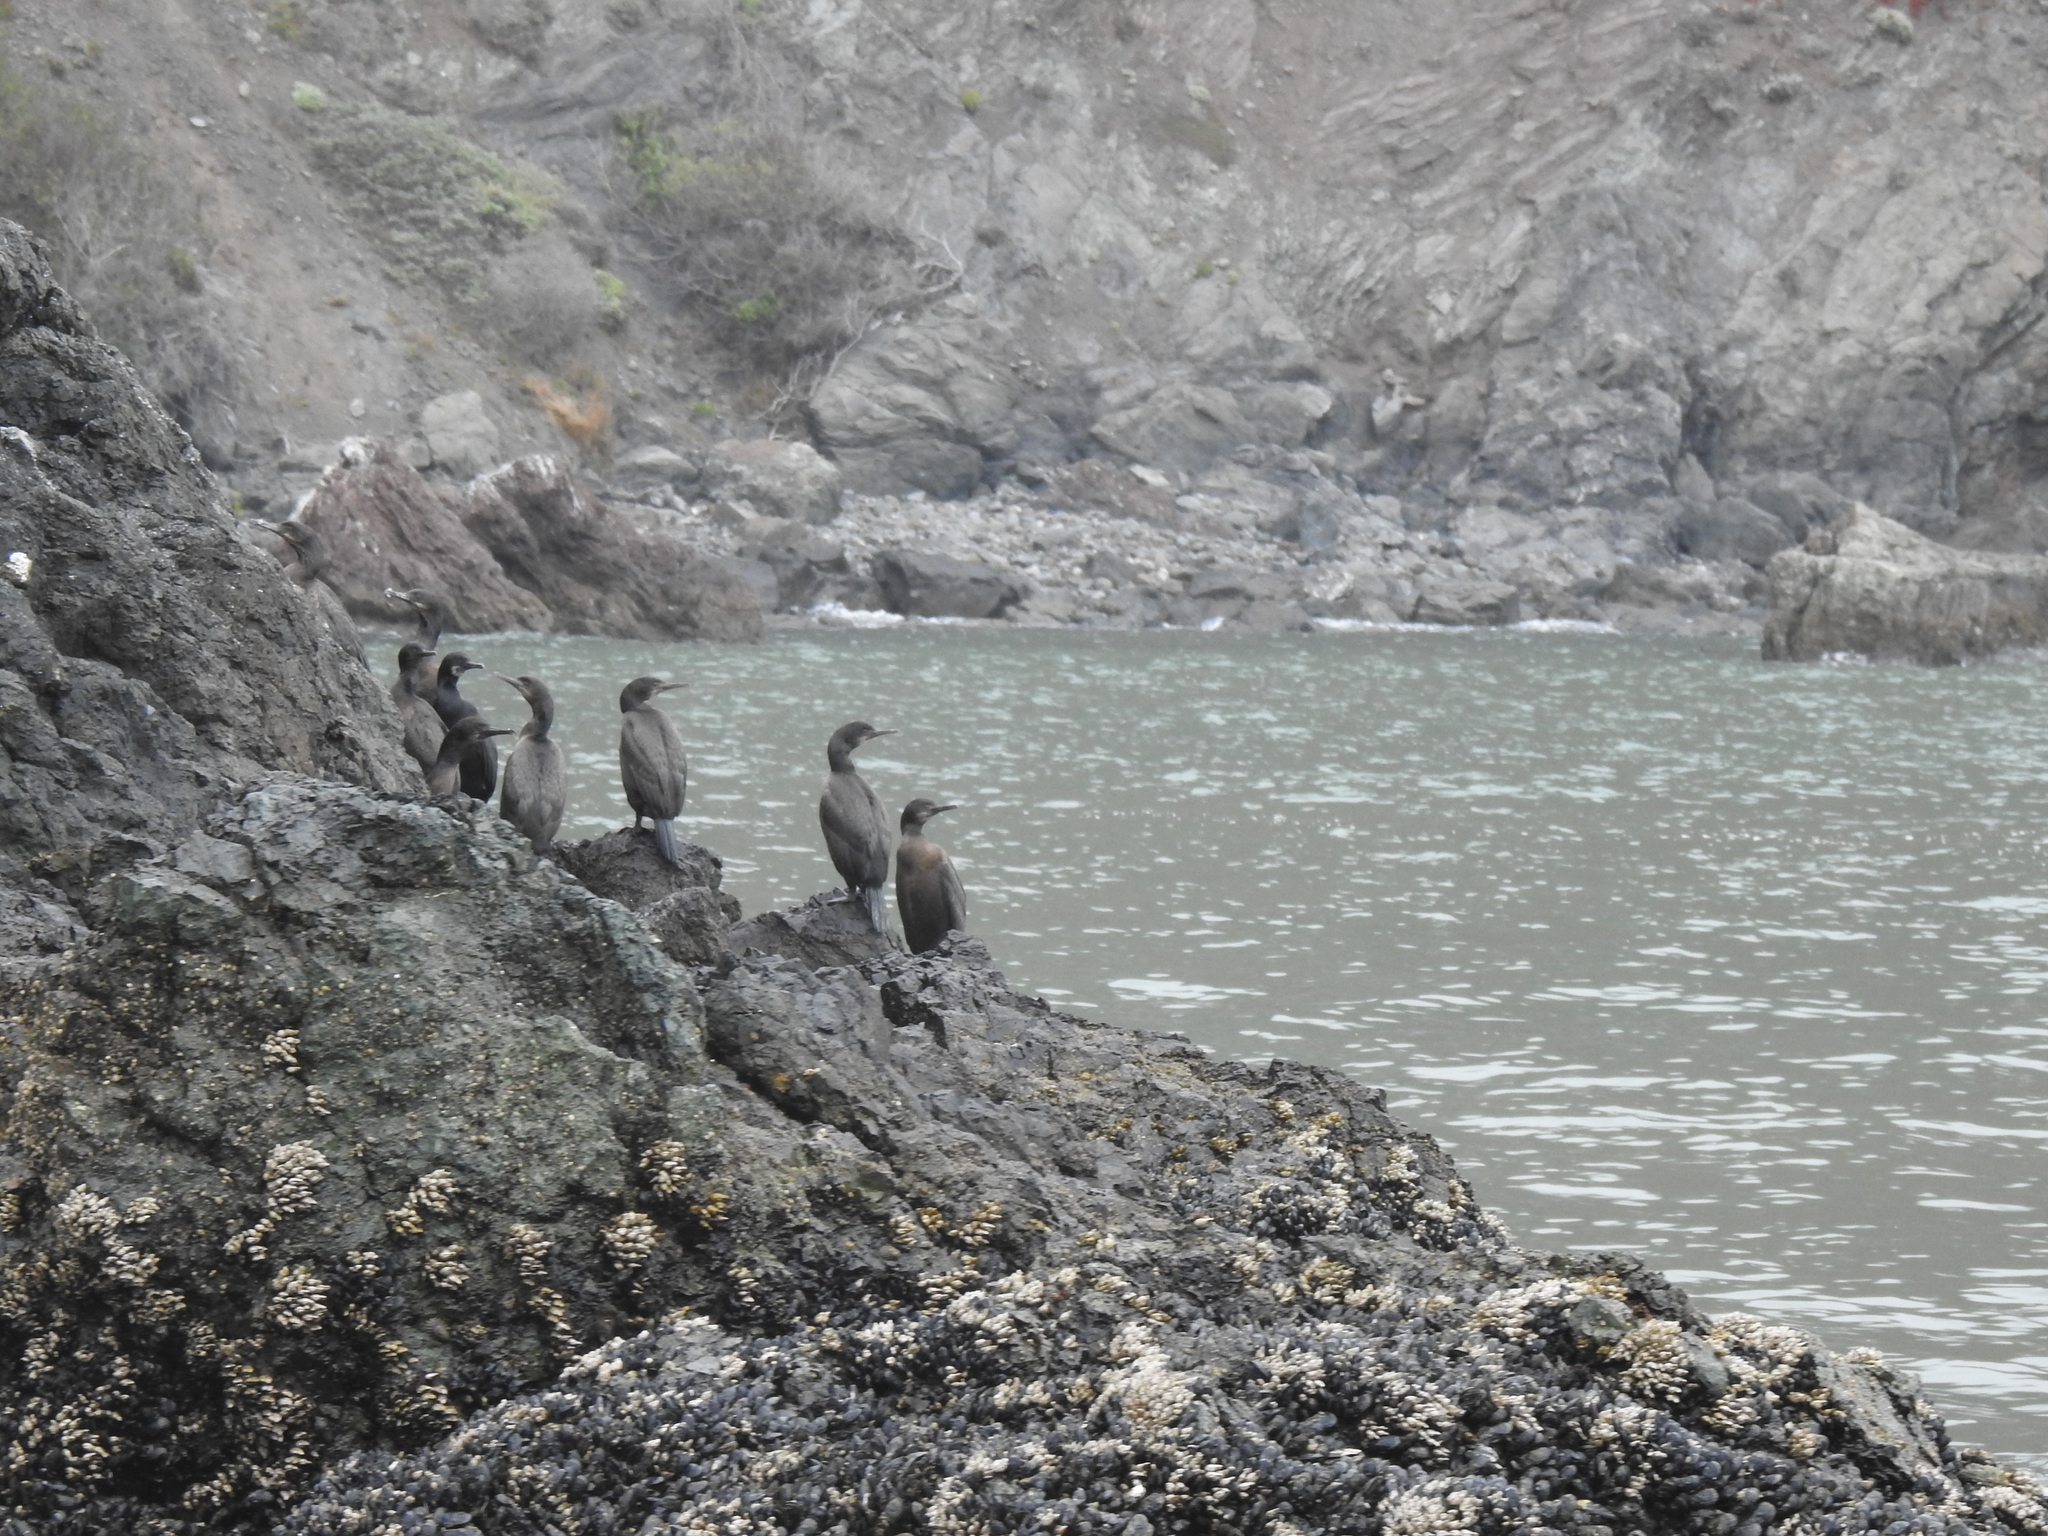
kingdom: Animalia
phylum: Chordata
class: Aves
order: Suliformes
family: Phalacrocoracidae
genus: Urile
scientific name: Urile penicillatus
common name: Brandt's cormorant
